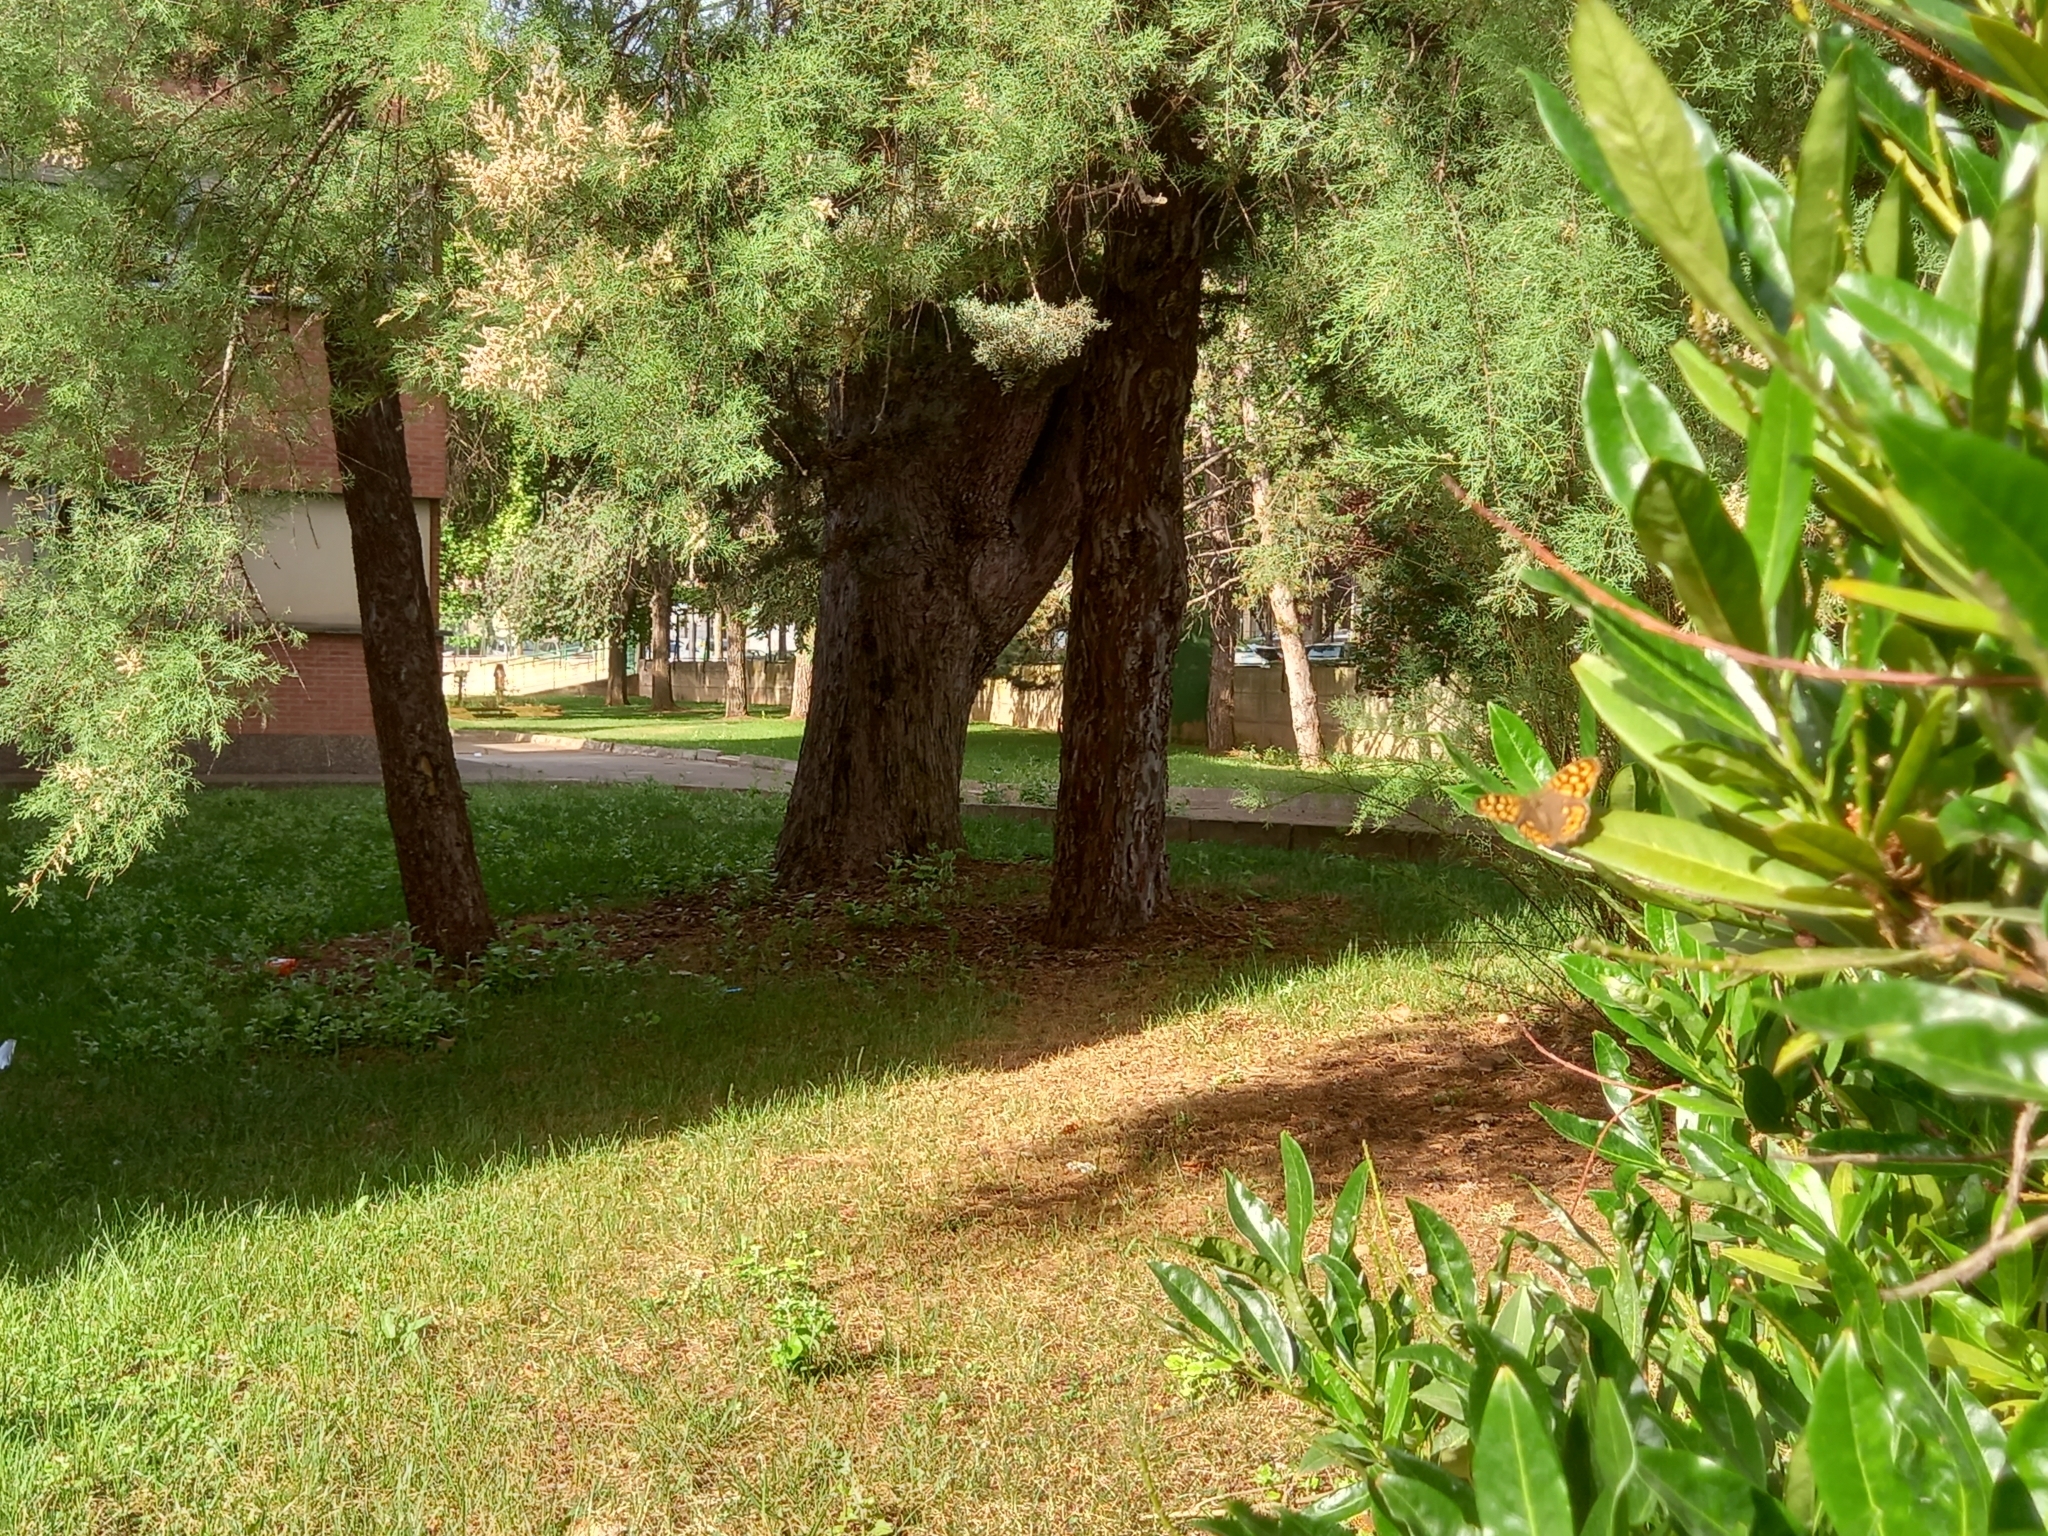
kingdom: Animalia
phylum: Arthropoda
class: Insecta
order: Lepidoptera
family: Nymphalidae
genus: Pararge
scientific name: Pararge aegeria
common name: Speckled wood
